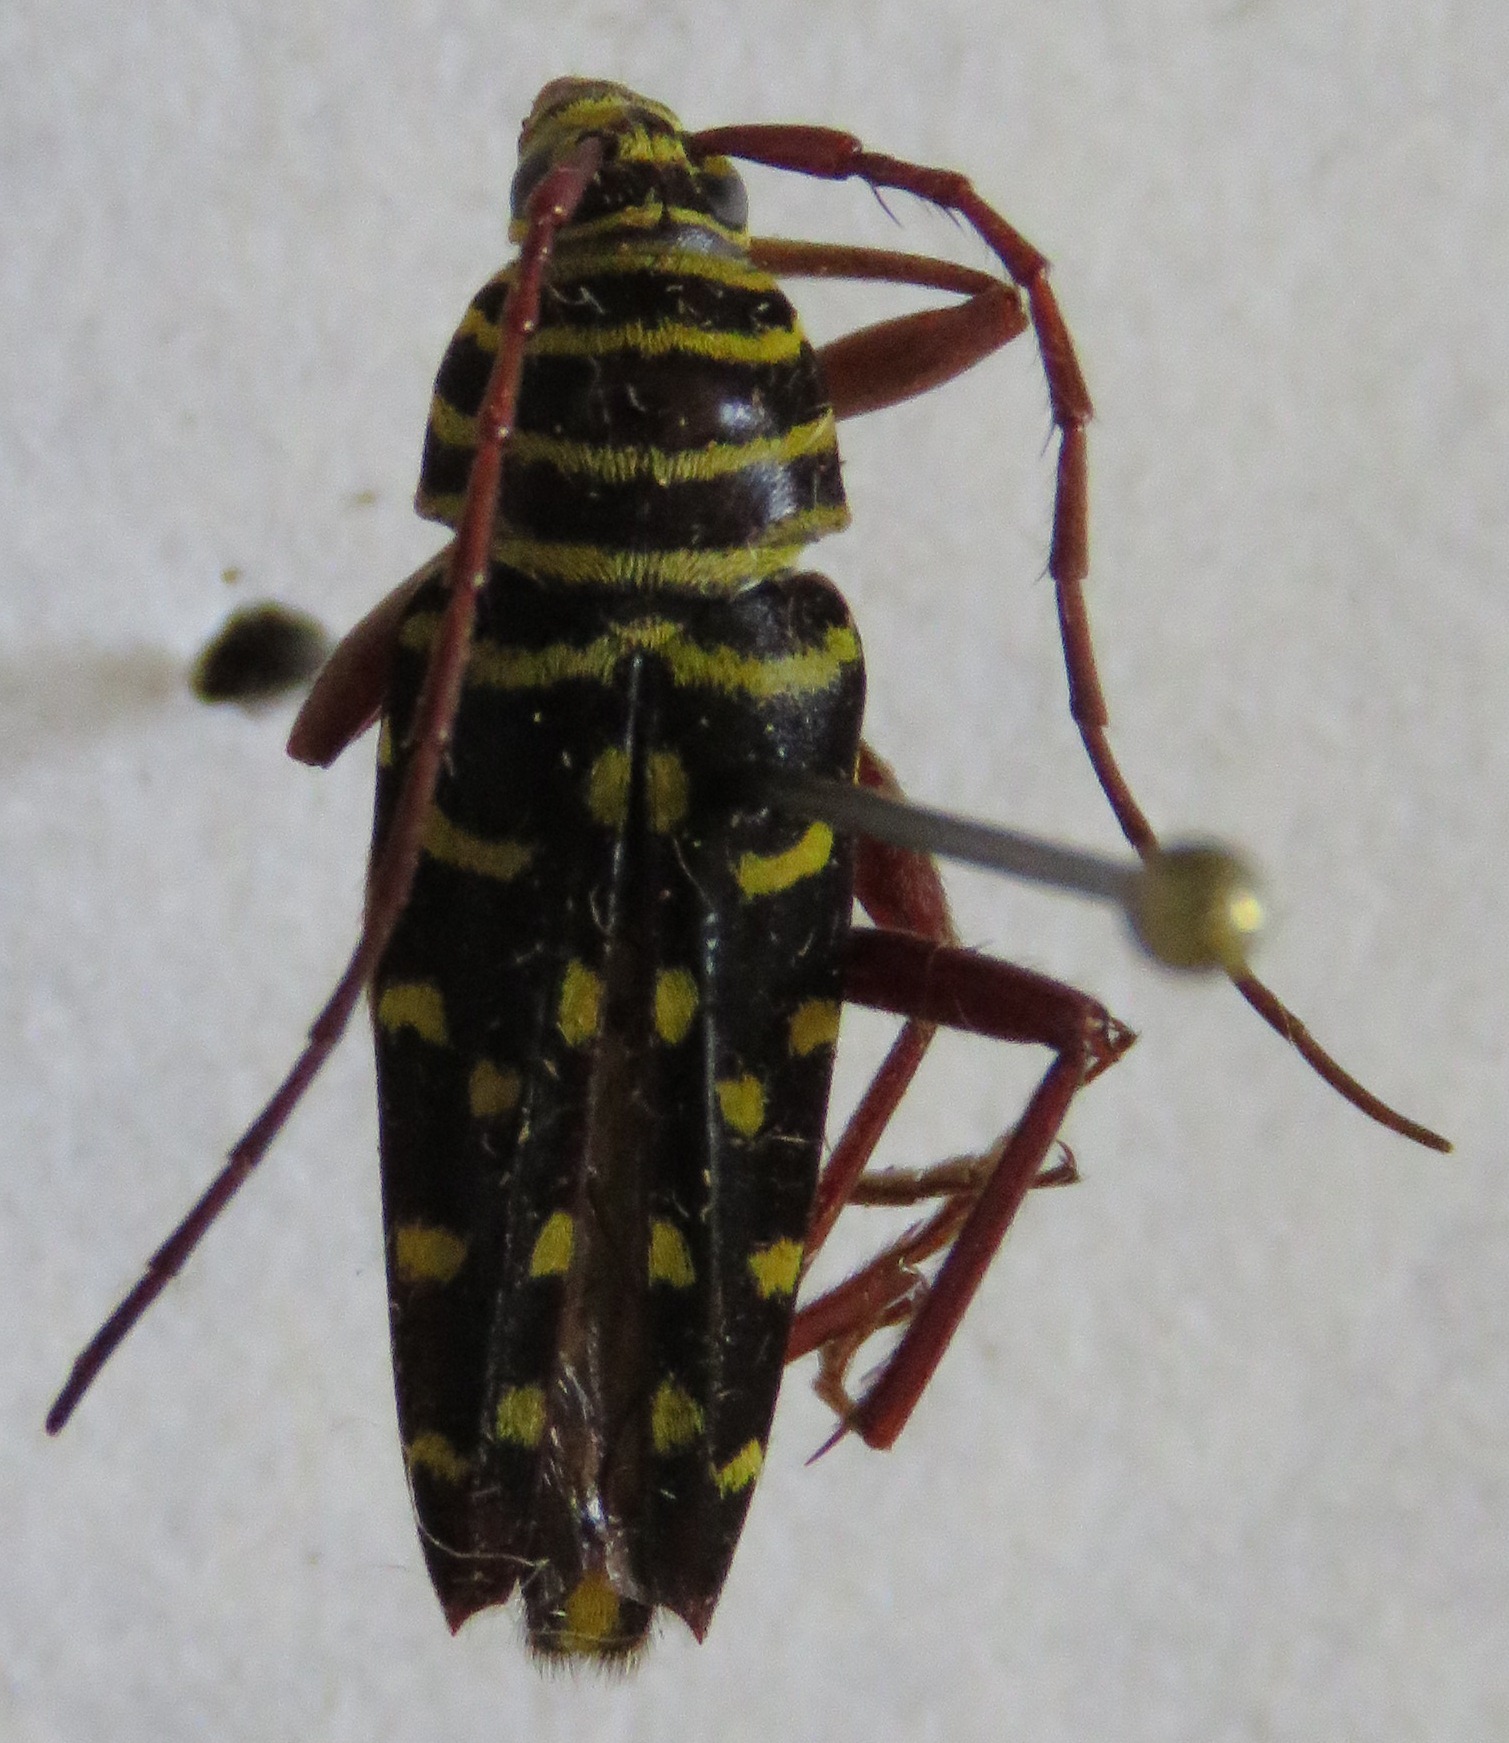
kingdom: Animalia
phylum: Arthropoda
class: Insecta
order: Coleoptera
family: Cerambycidae
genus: Placosternus
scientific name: Placosternus crinicornis
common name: Kiawe round headed borer
